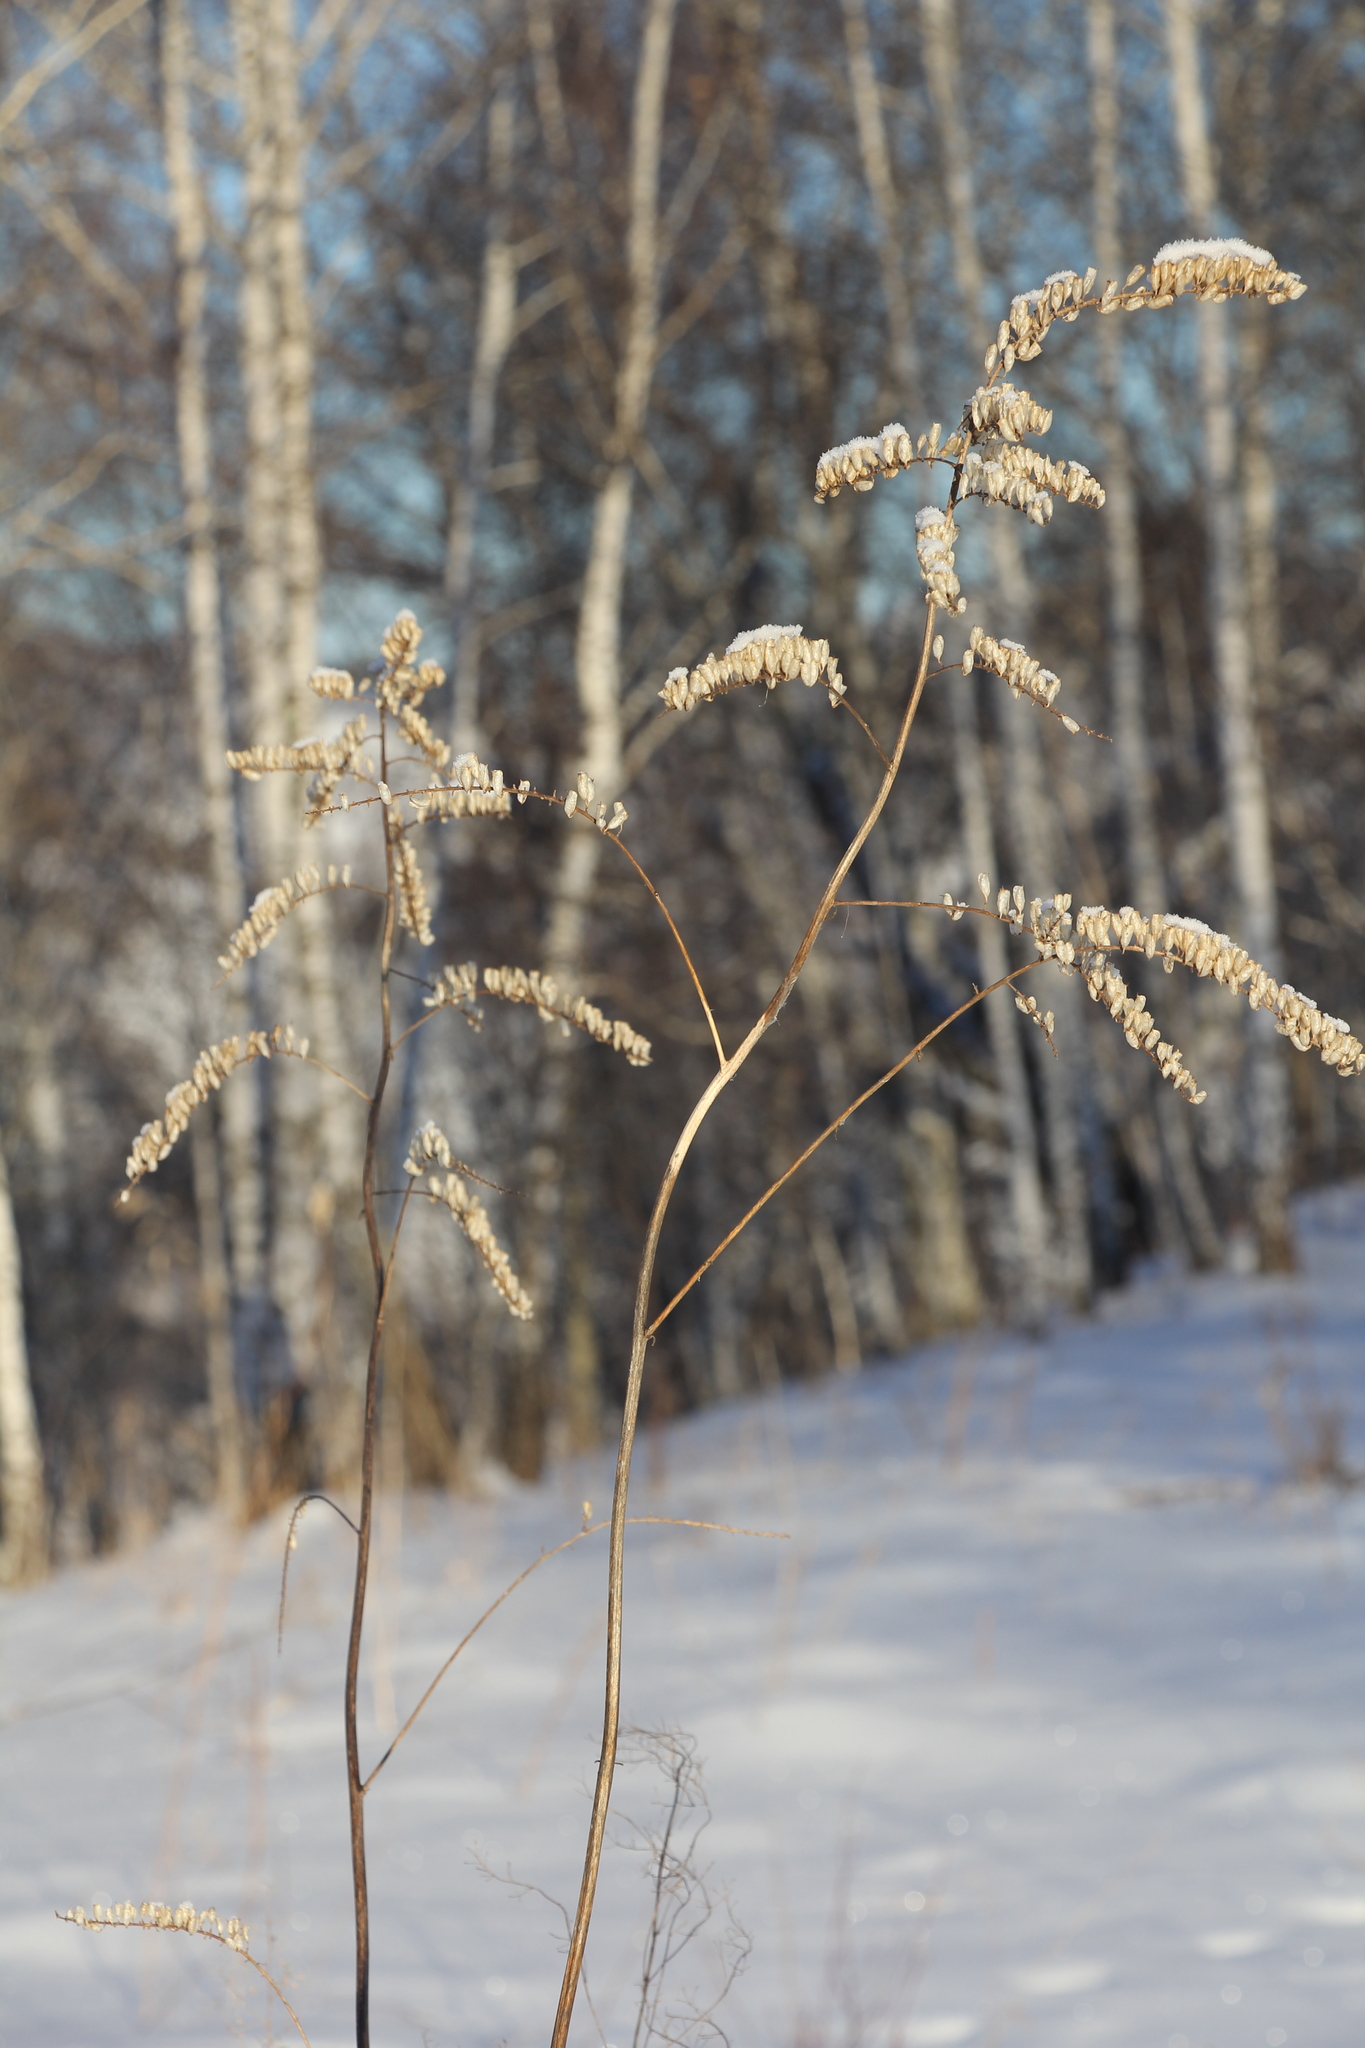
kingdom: Plantae
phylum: Tracheophyta
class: Magnoliopsida
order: Ranunculales
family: Ranunculaceae
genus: Actaea
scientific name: Actaea cimicifuga
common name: Chinese cimicifuga
